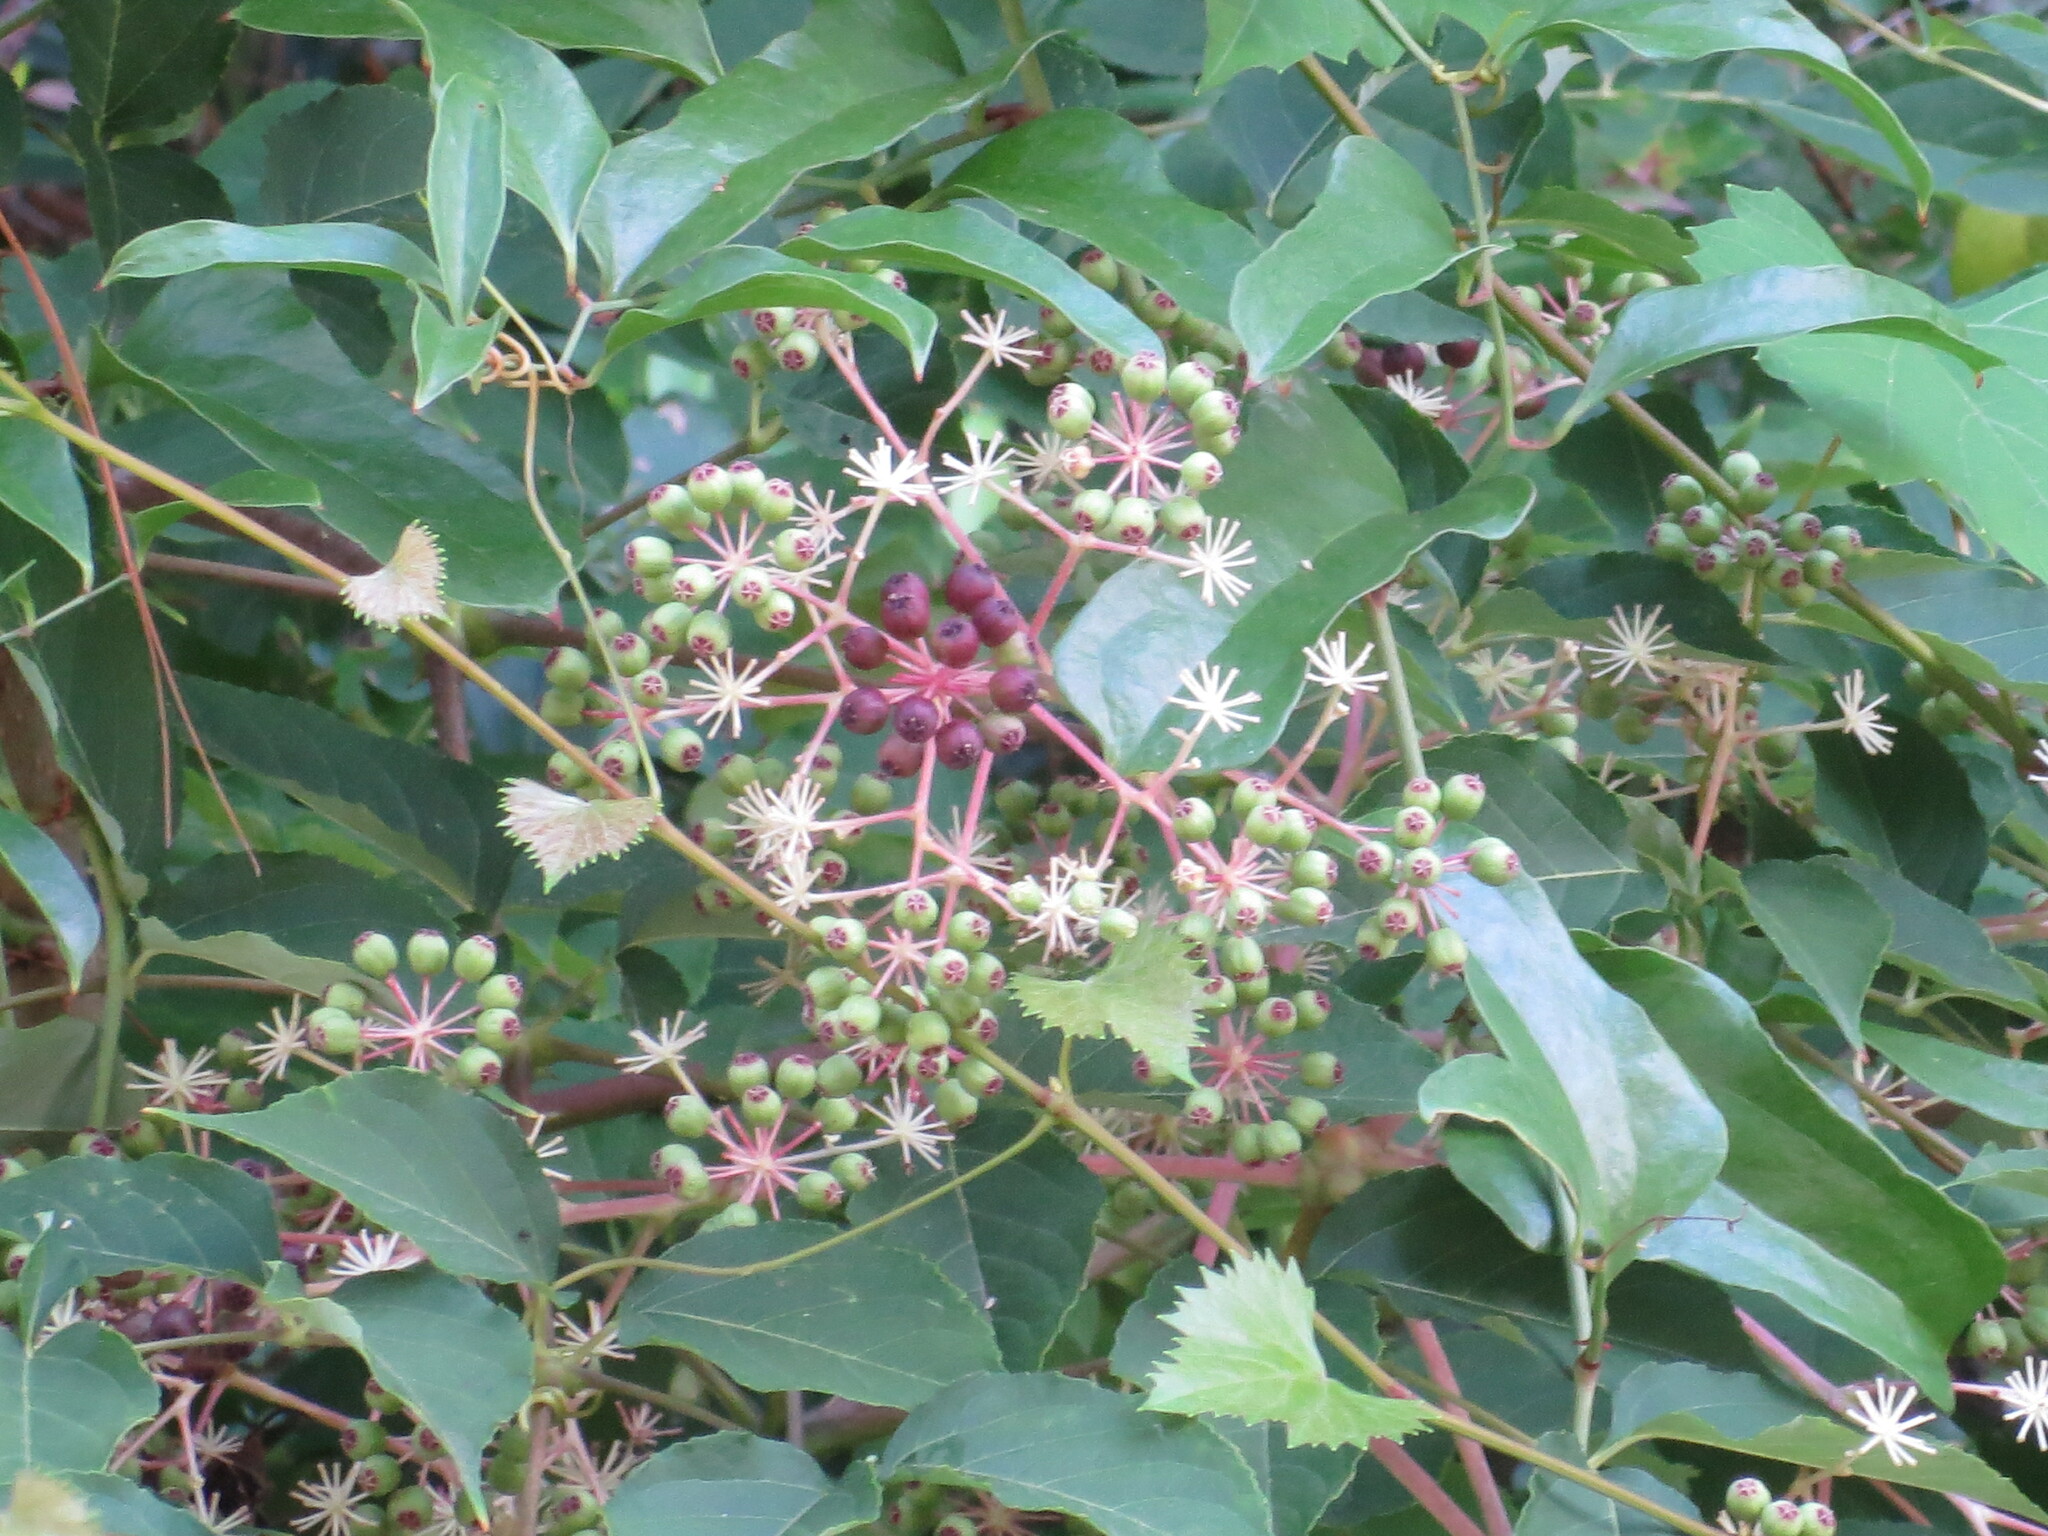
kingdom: Plantae
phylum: Tracheophyta
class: Magnoliopsida
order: Apiales
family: Araliaceae
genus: Aralia
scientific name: Aralia spinosa
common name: Hercules'-club
